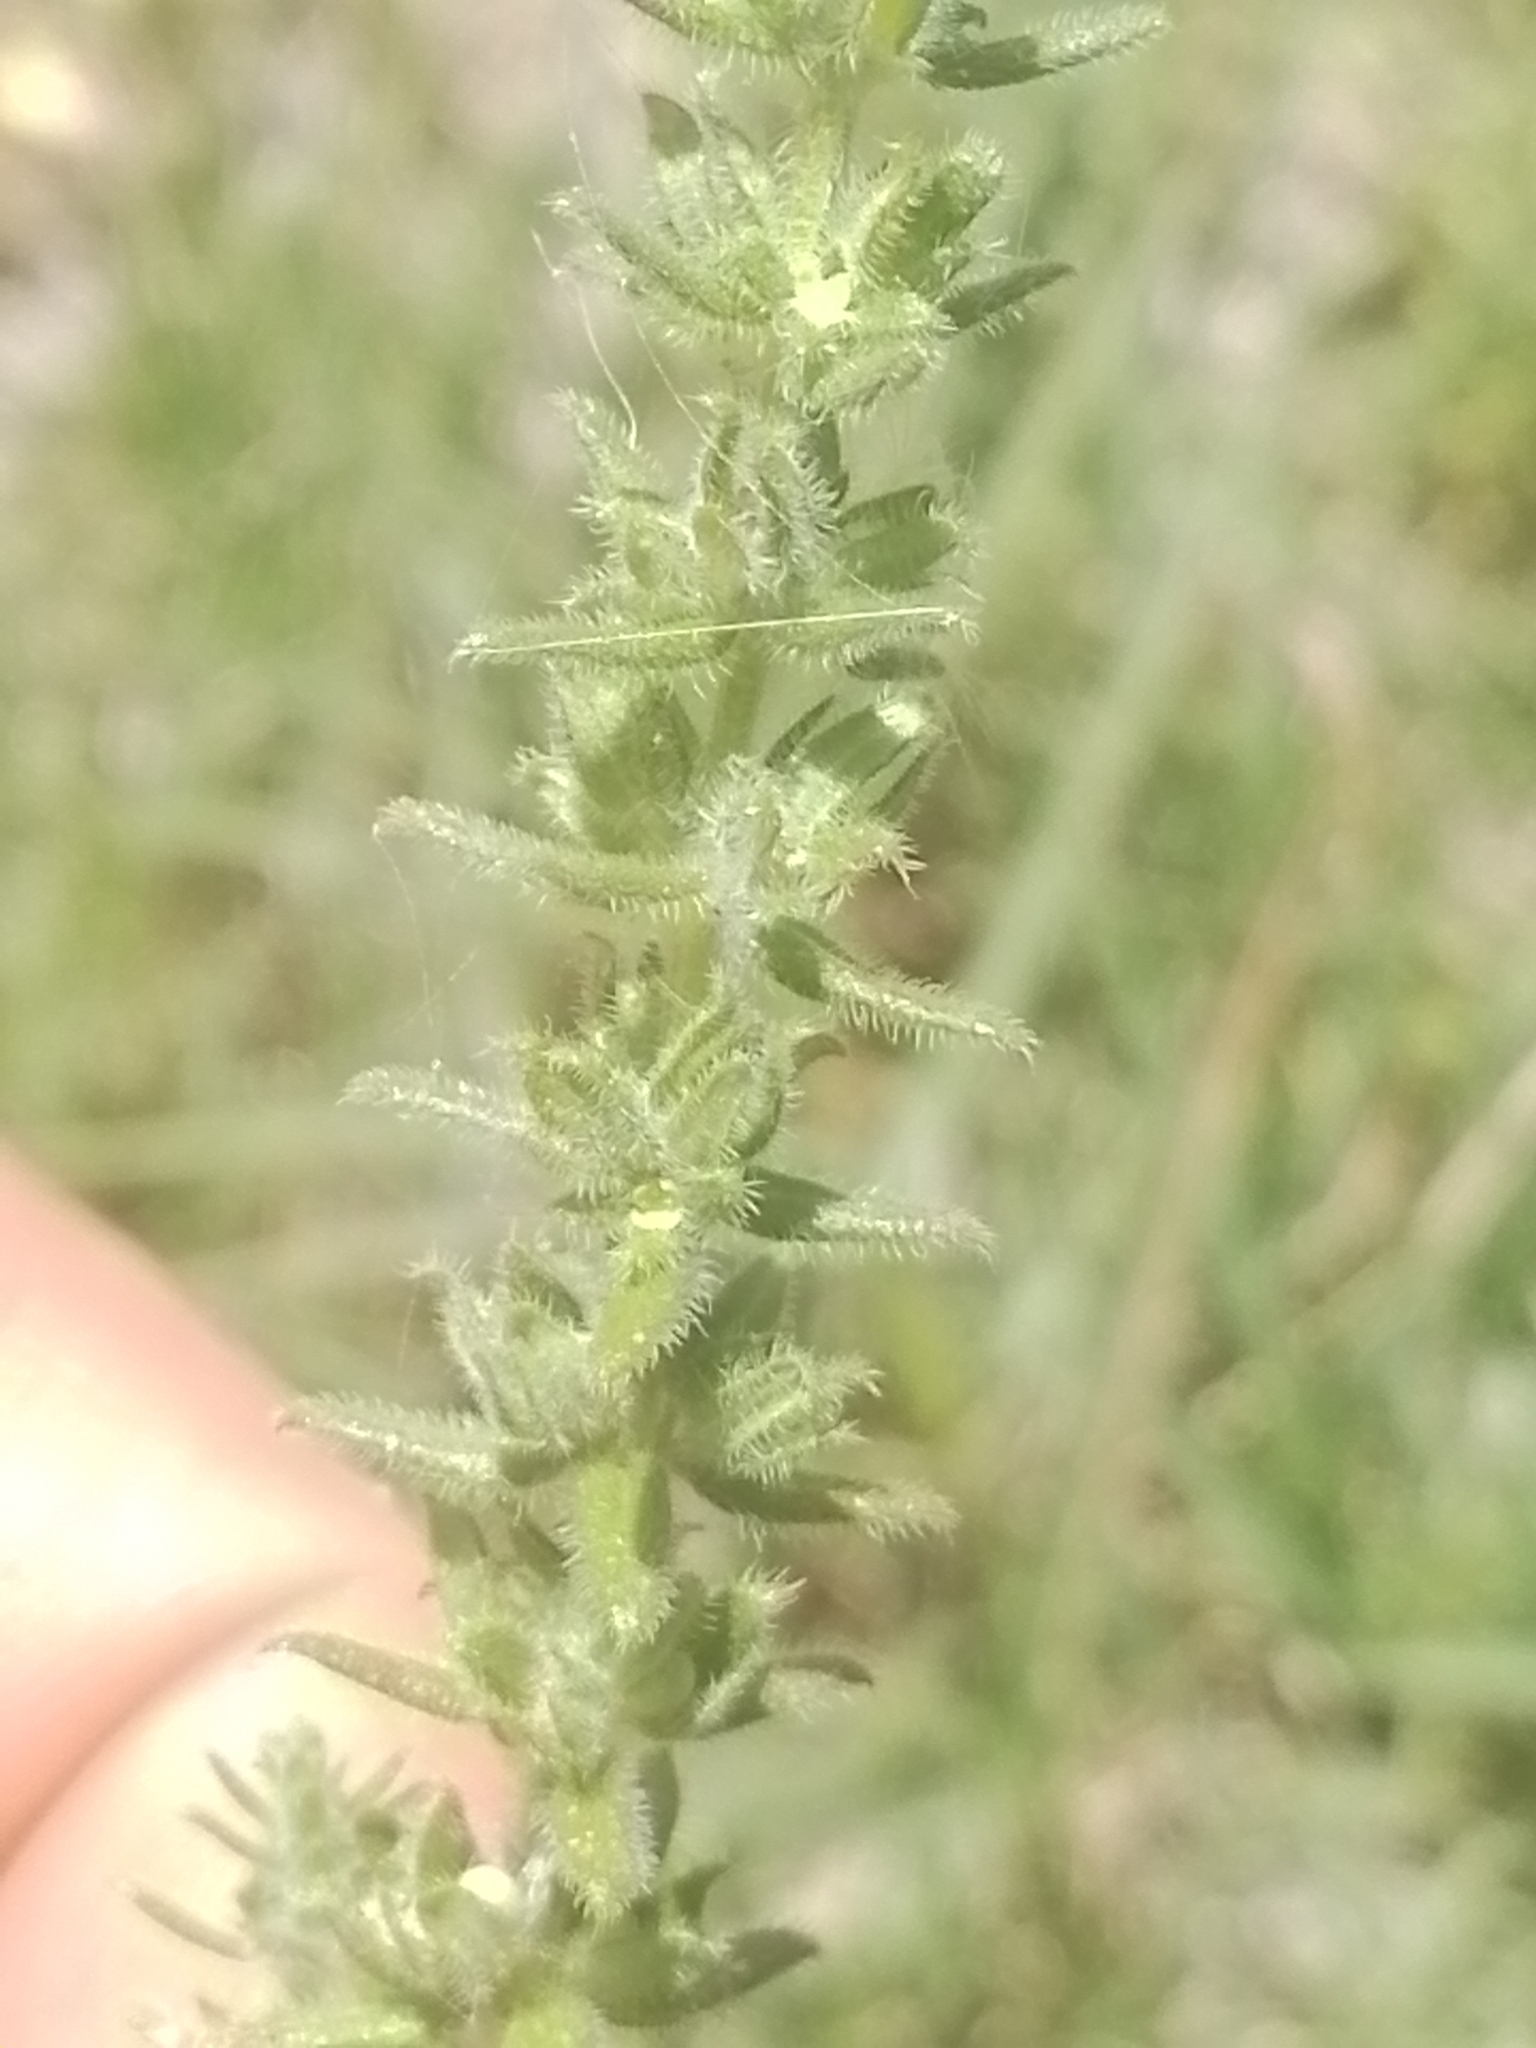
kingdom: Plantae
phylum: Tracheophyta
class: Magnoliopsida
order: Gentianales
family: Rubiaceae
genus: Galium
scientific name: Galium hirtum
